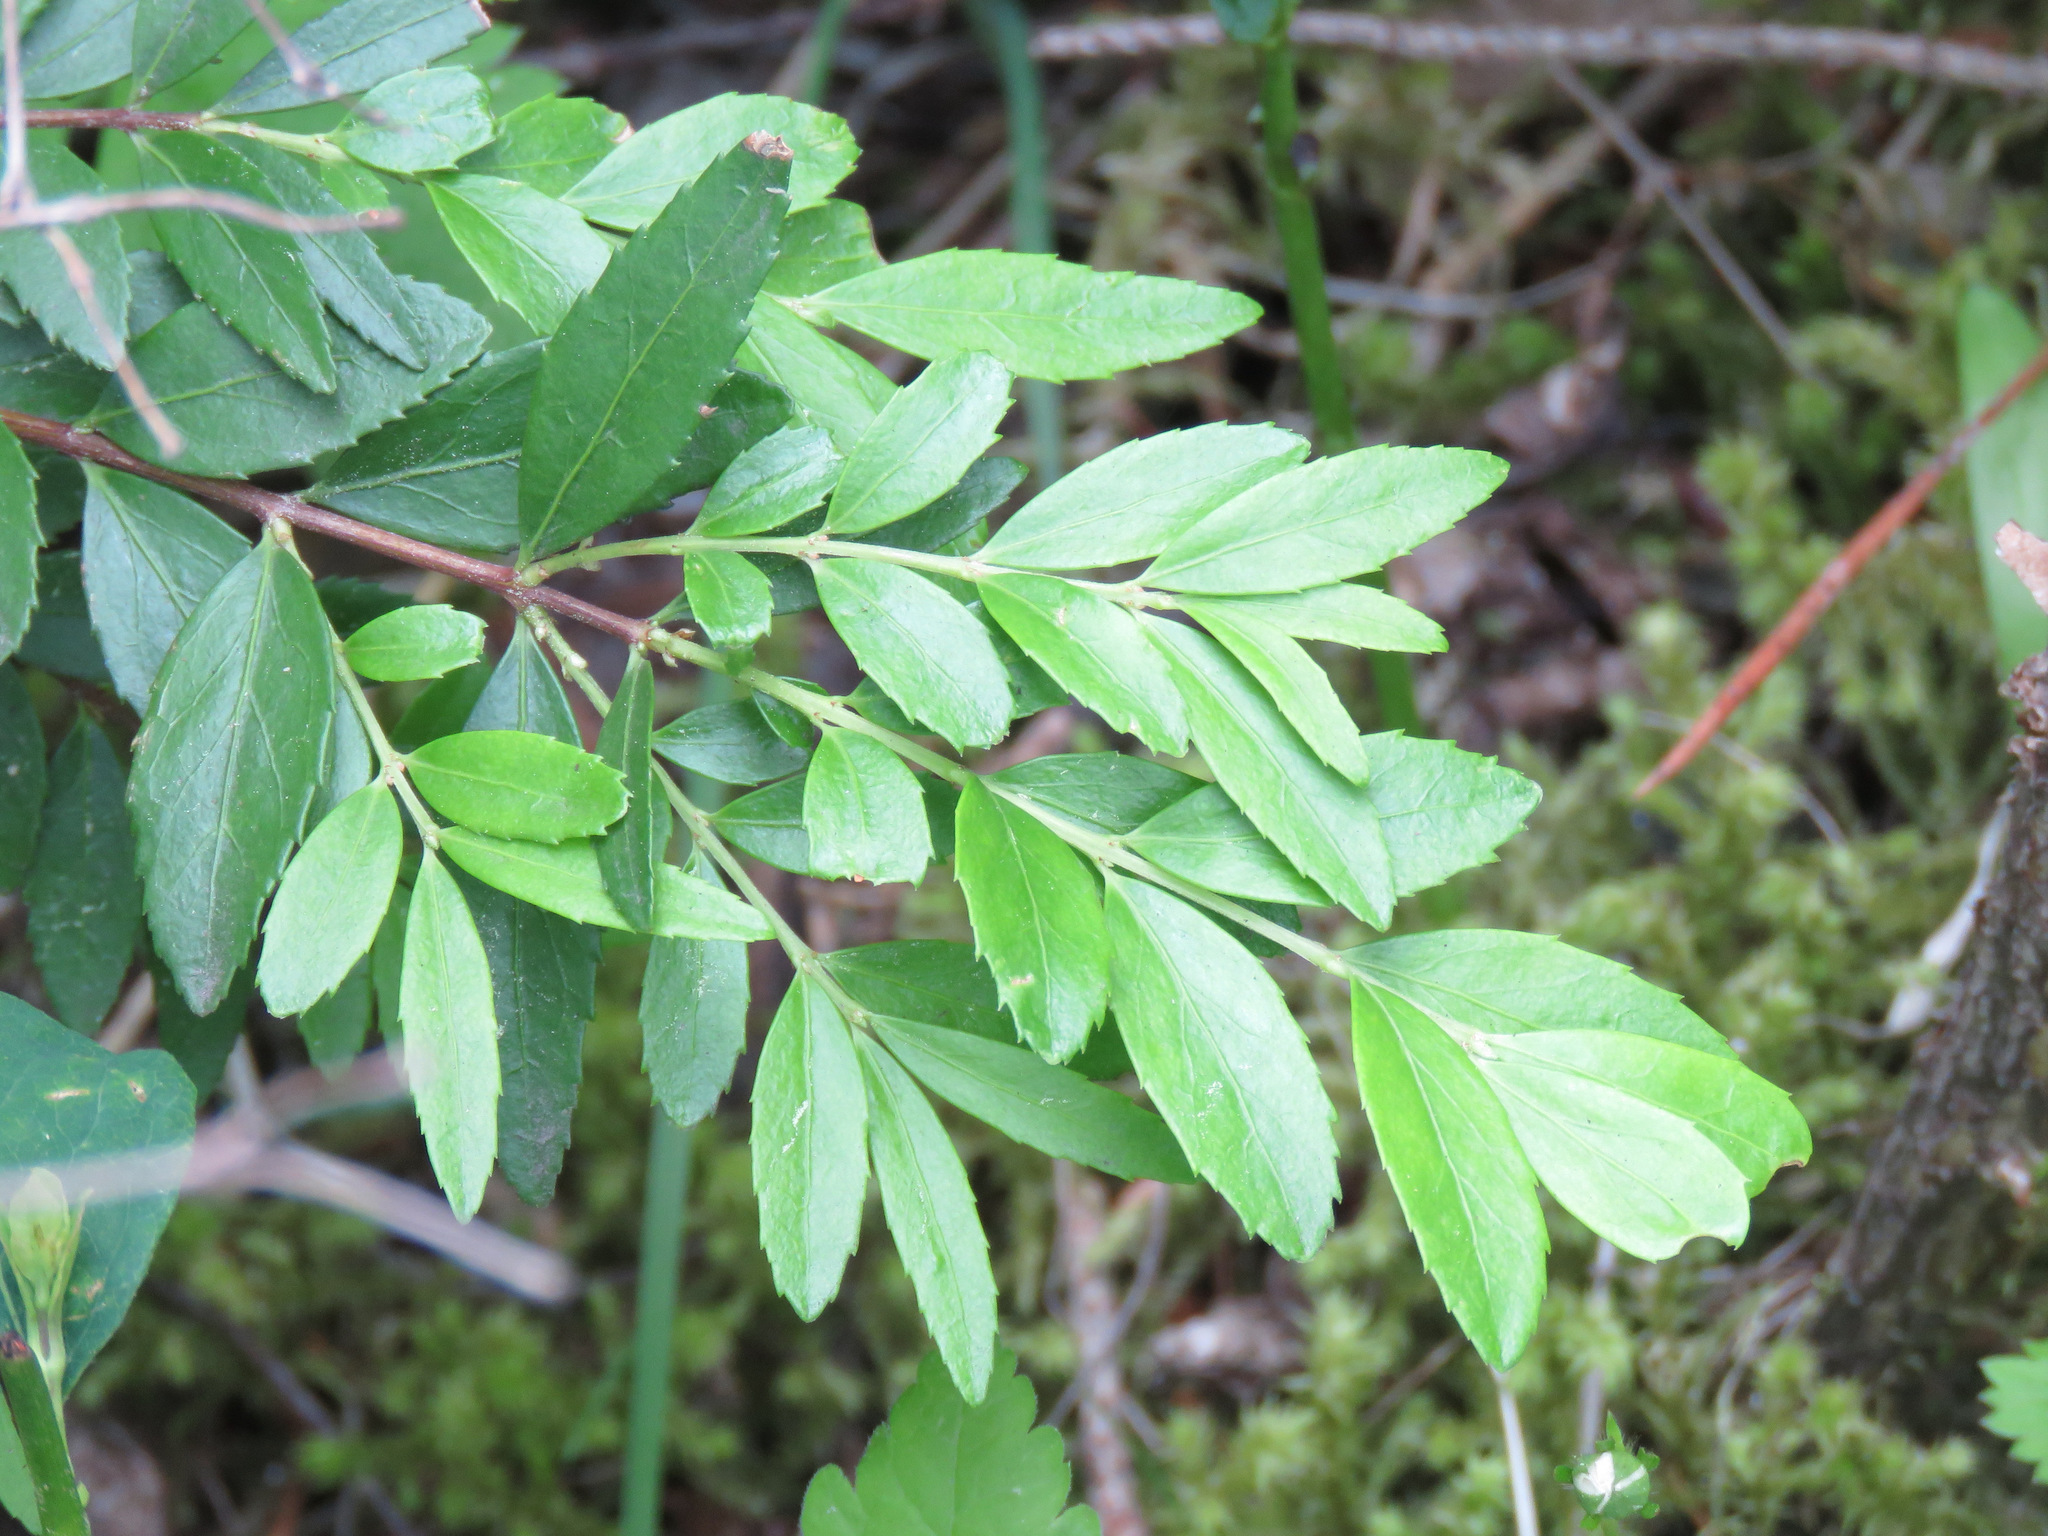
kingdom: Plantae
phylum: Tracheophyta
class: Magnoliopsida
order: Celastrales
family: Celastraceae
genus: Paxistima
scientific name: Paxistima myrsinites
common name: Mountain-lover
